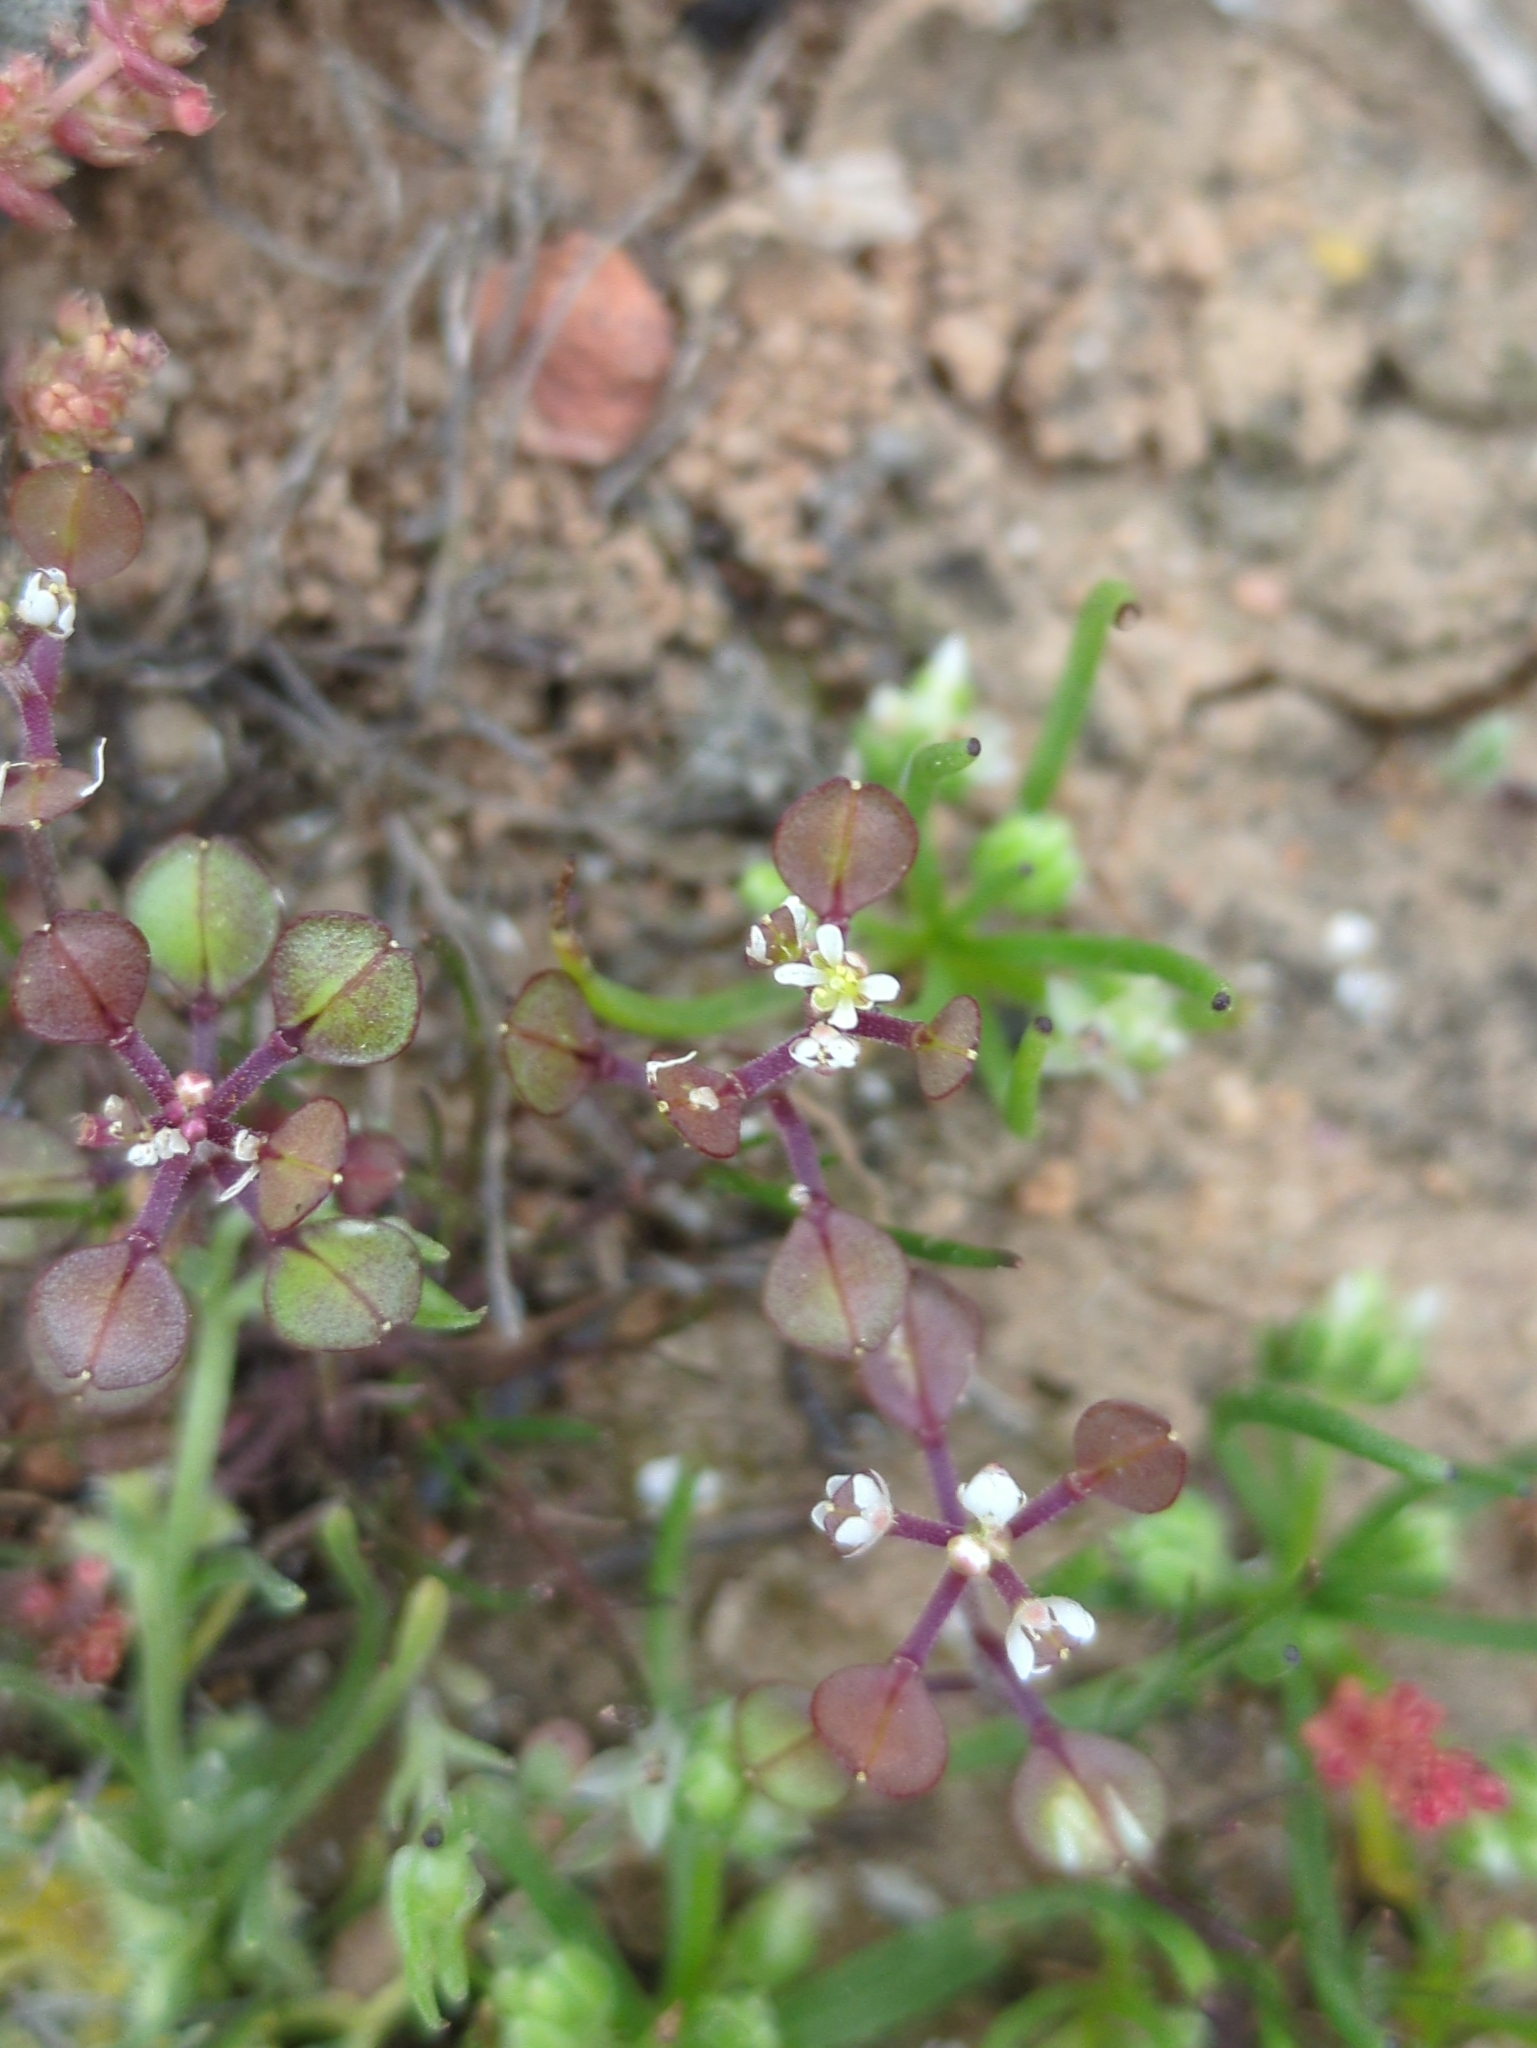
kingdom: Plantae
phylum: Tracheophyta
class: Magnoliopsida
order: Brassicales
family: Brassicaceae
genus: Lepidium
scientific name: Lepidium nitidum
